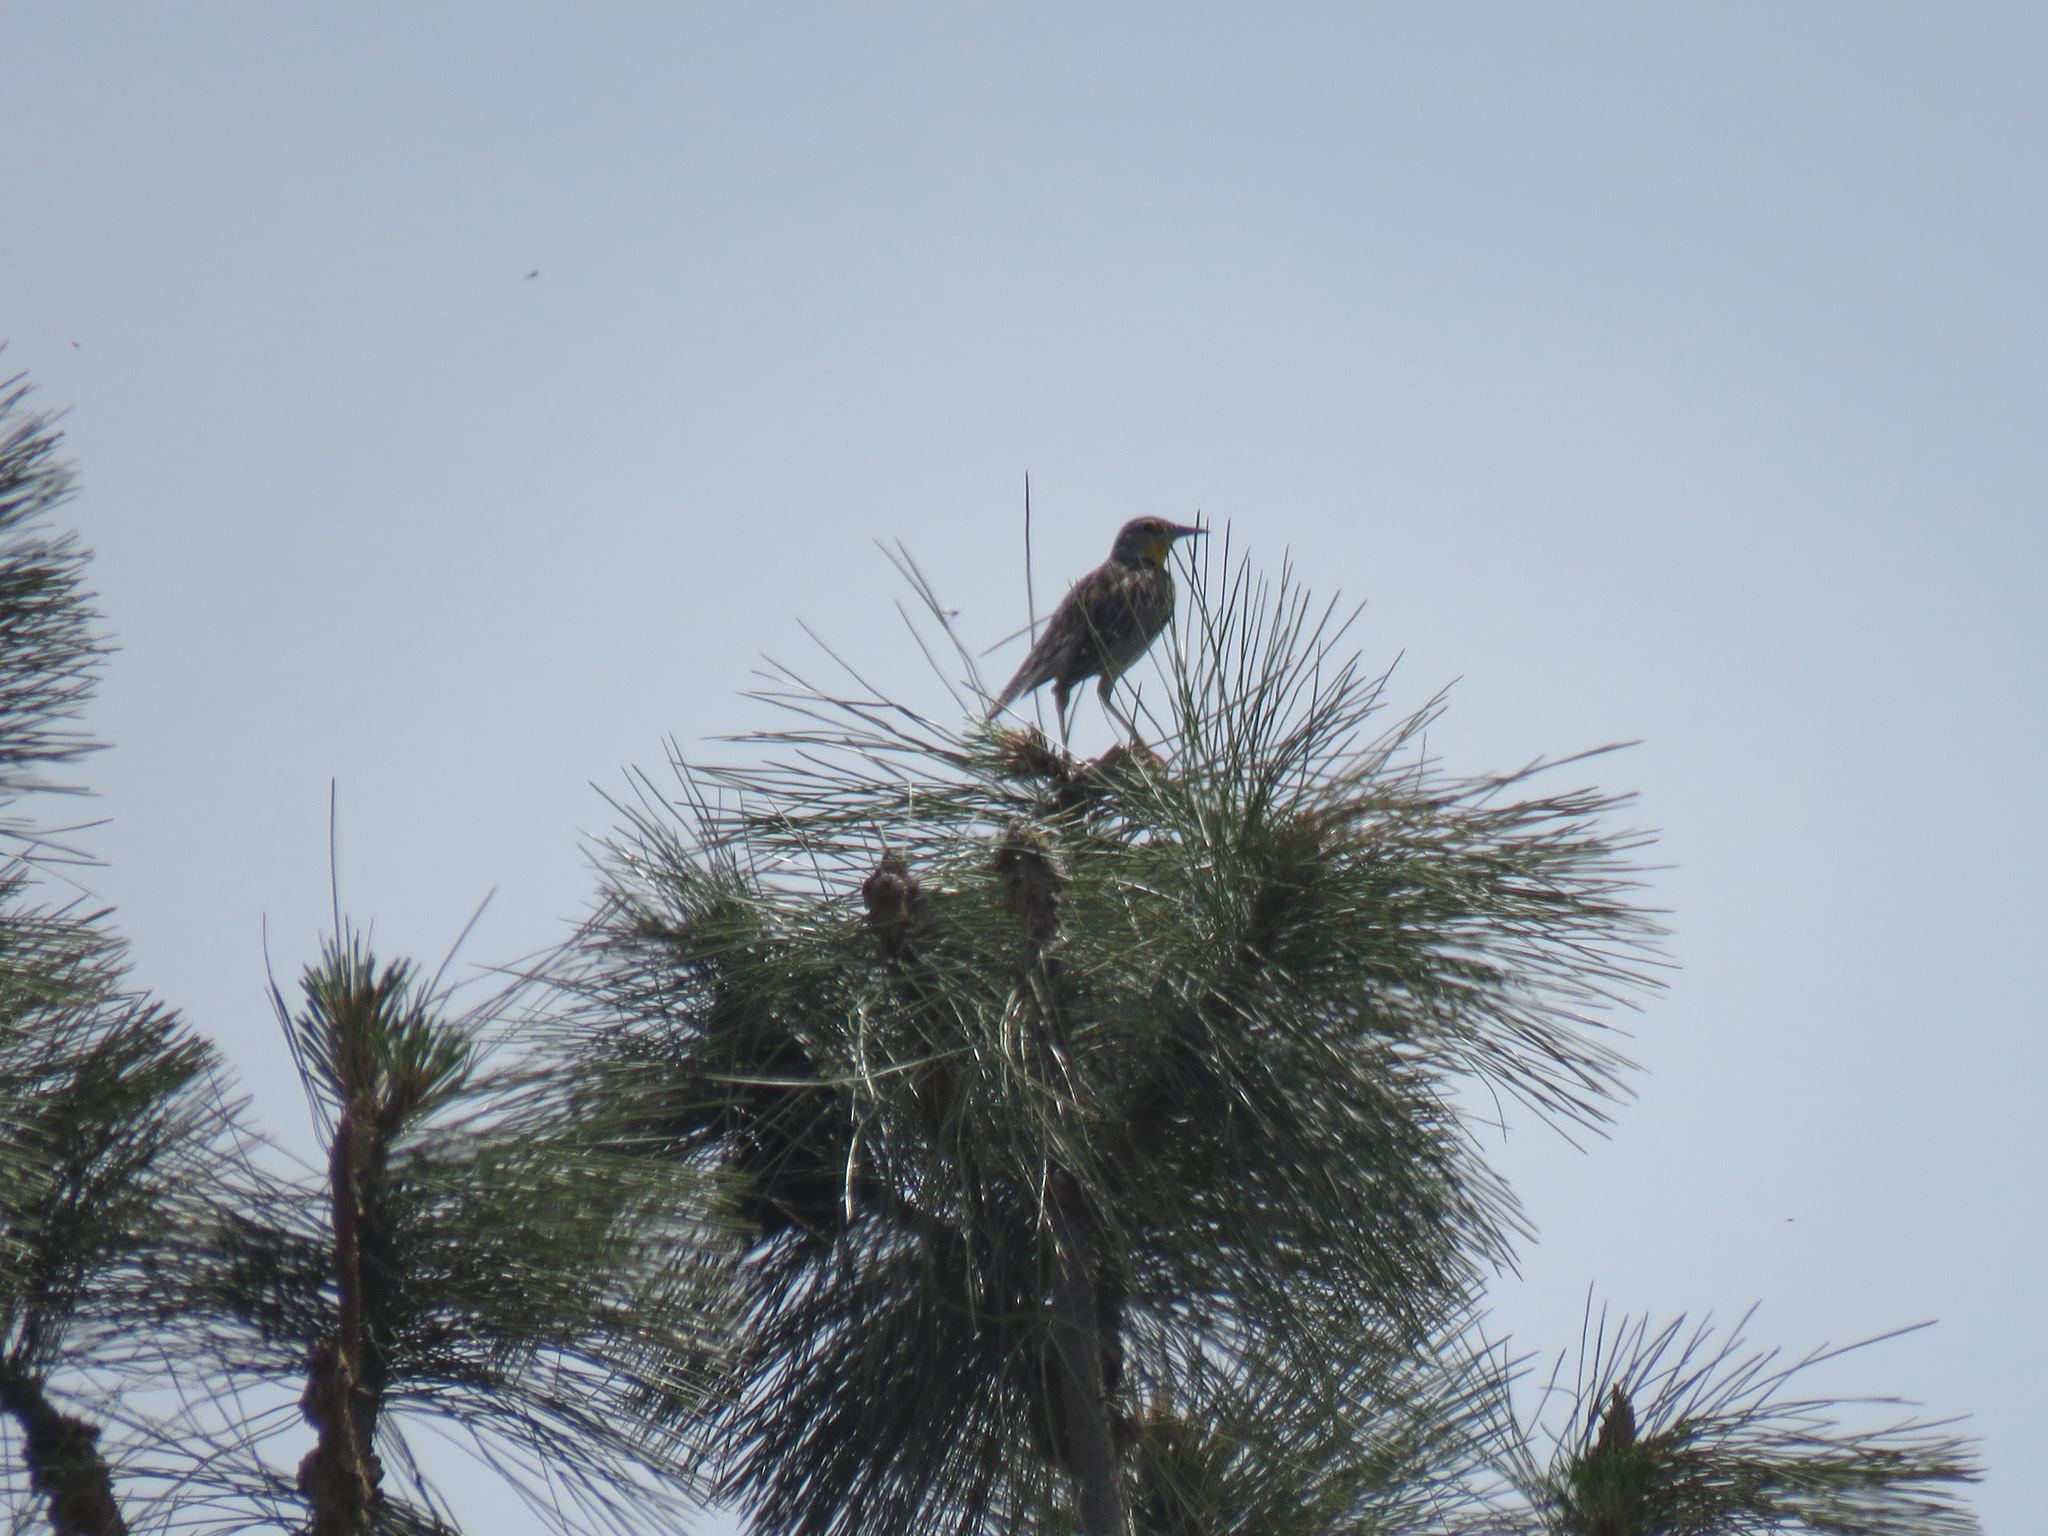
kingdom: Animalia
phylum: Chordata
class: Aves
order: Passeriformes
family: Icteridae
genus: Sturnella
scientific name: Sturnella neglecta
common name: Western meadowlark
